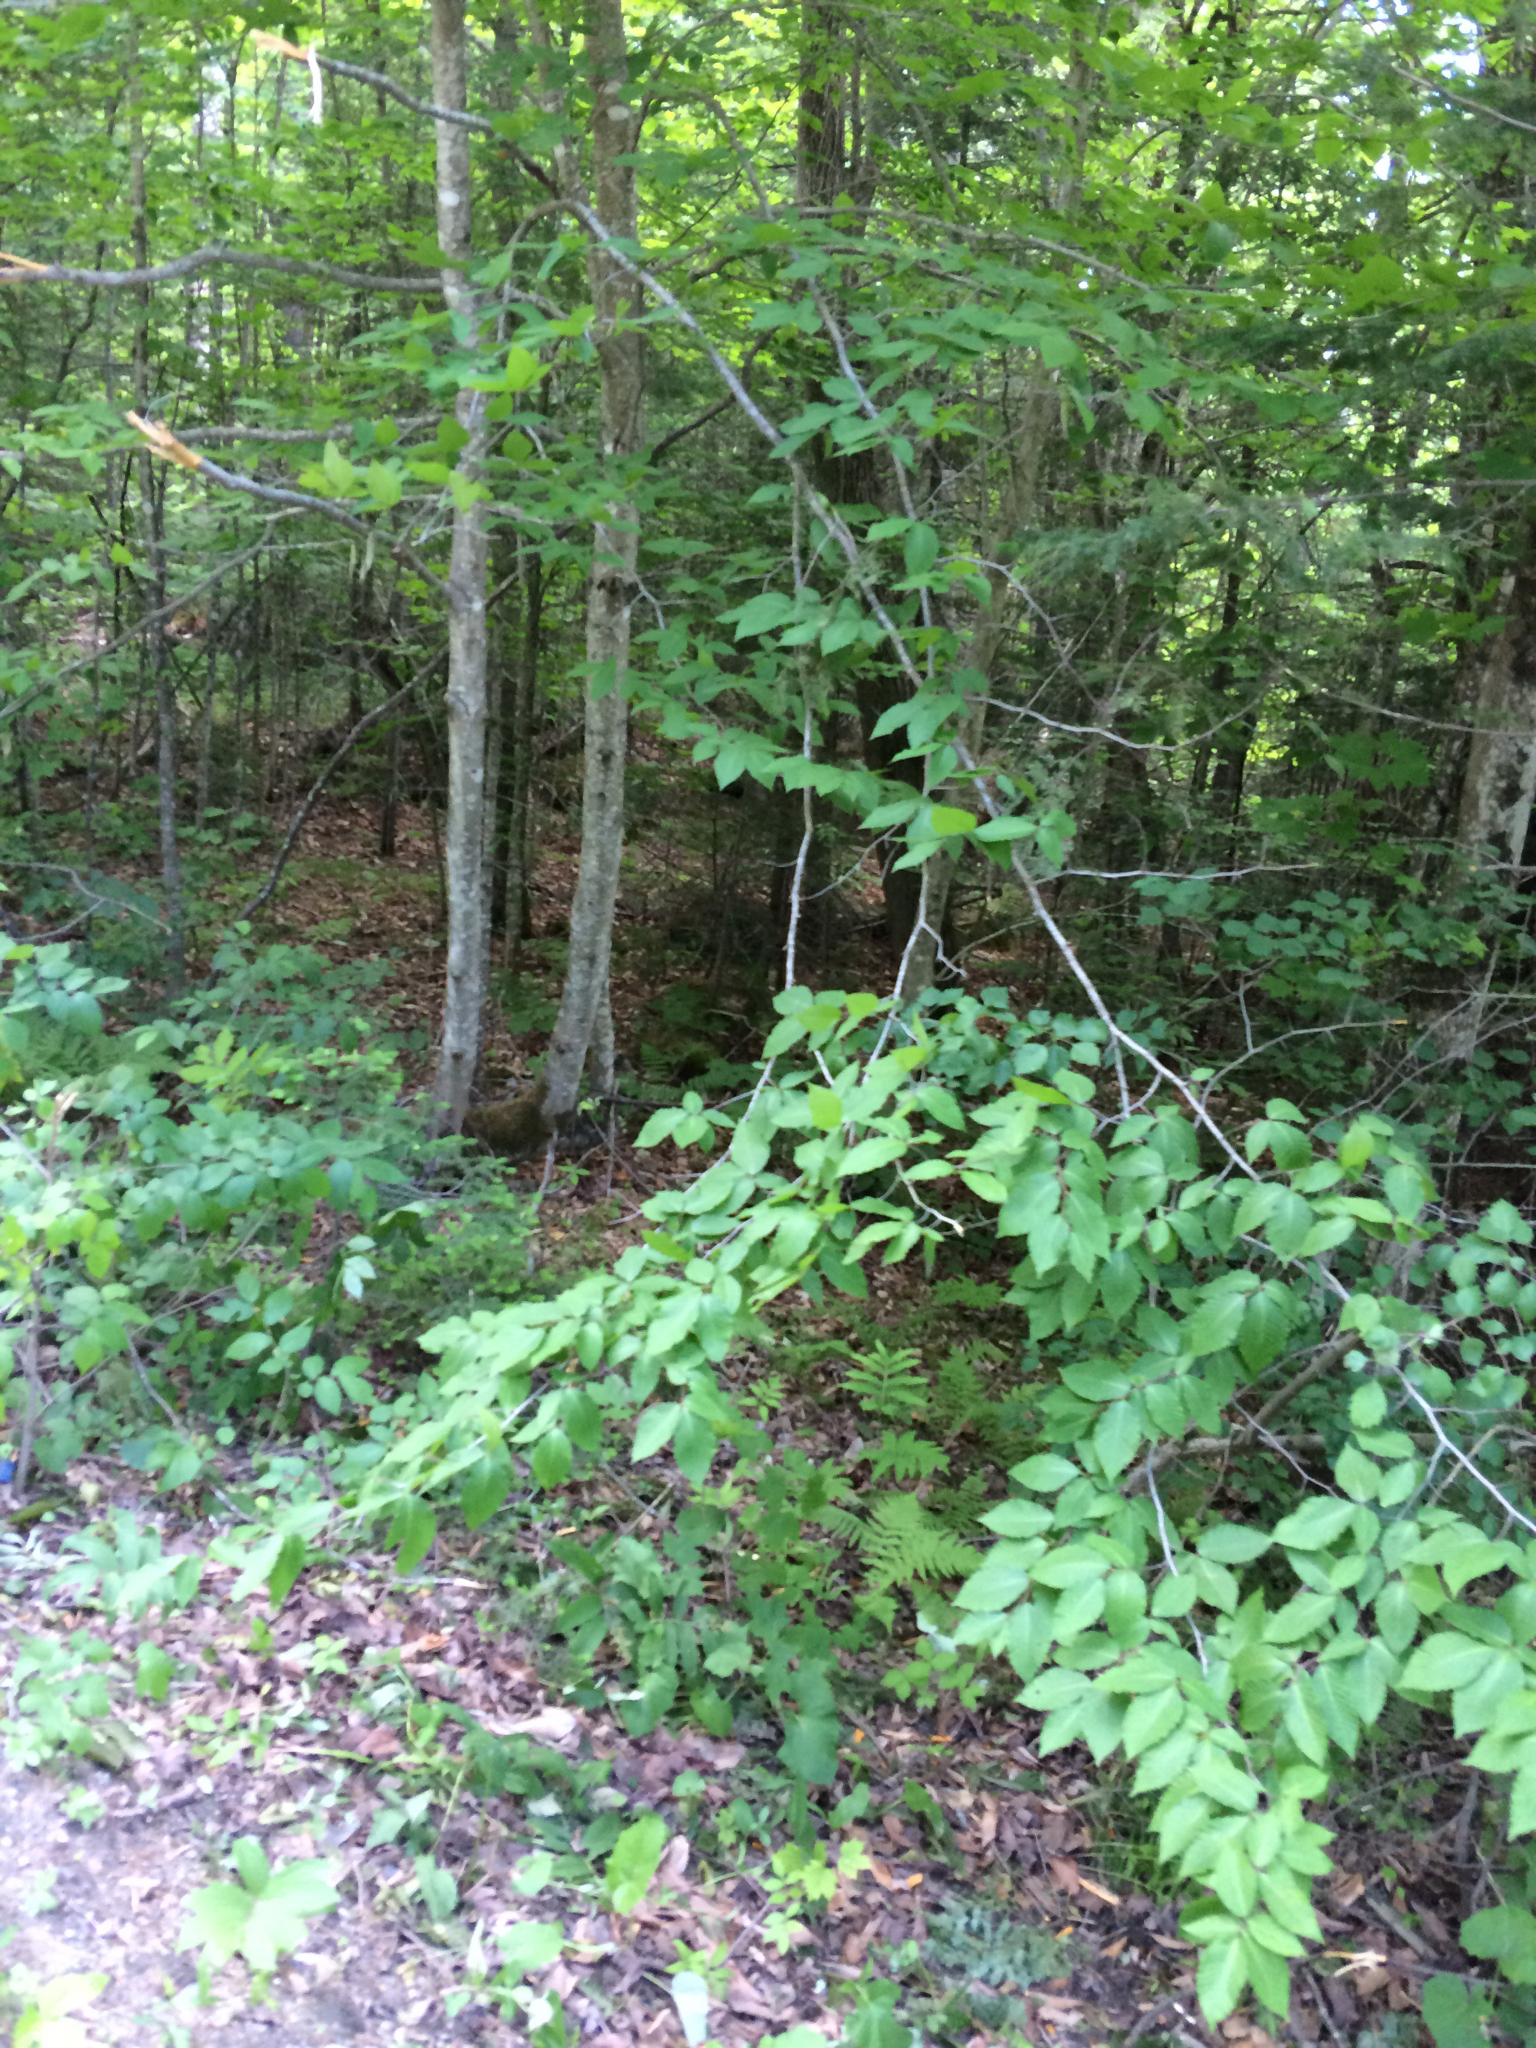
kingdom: Plantae
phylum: Tracheophyta
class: Magnoliopsida
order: Fagales
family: Fagaceae
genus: Fagus
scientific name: Fagus grandifolia
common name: American beech
